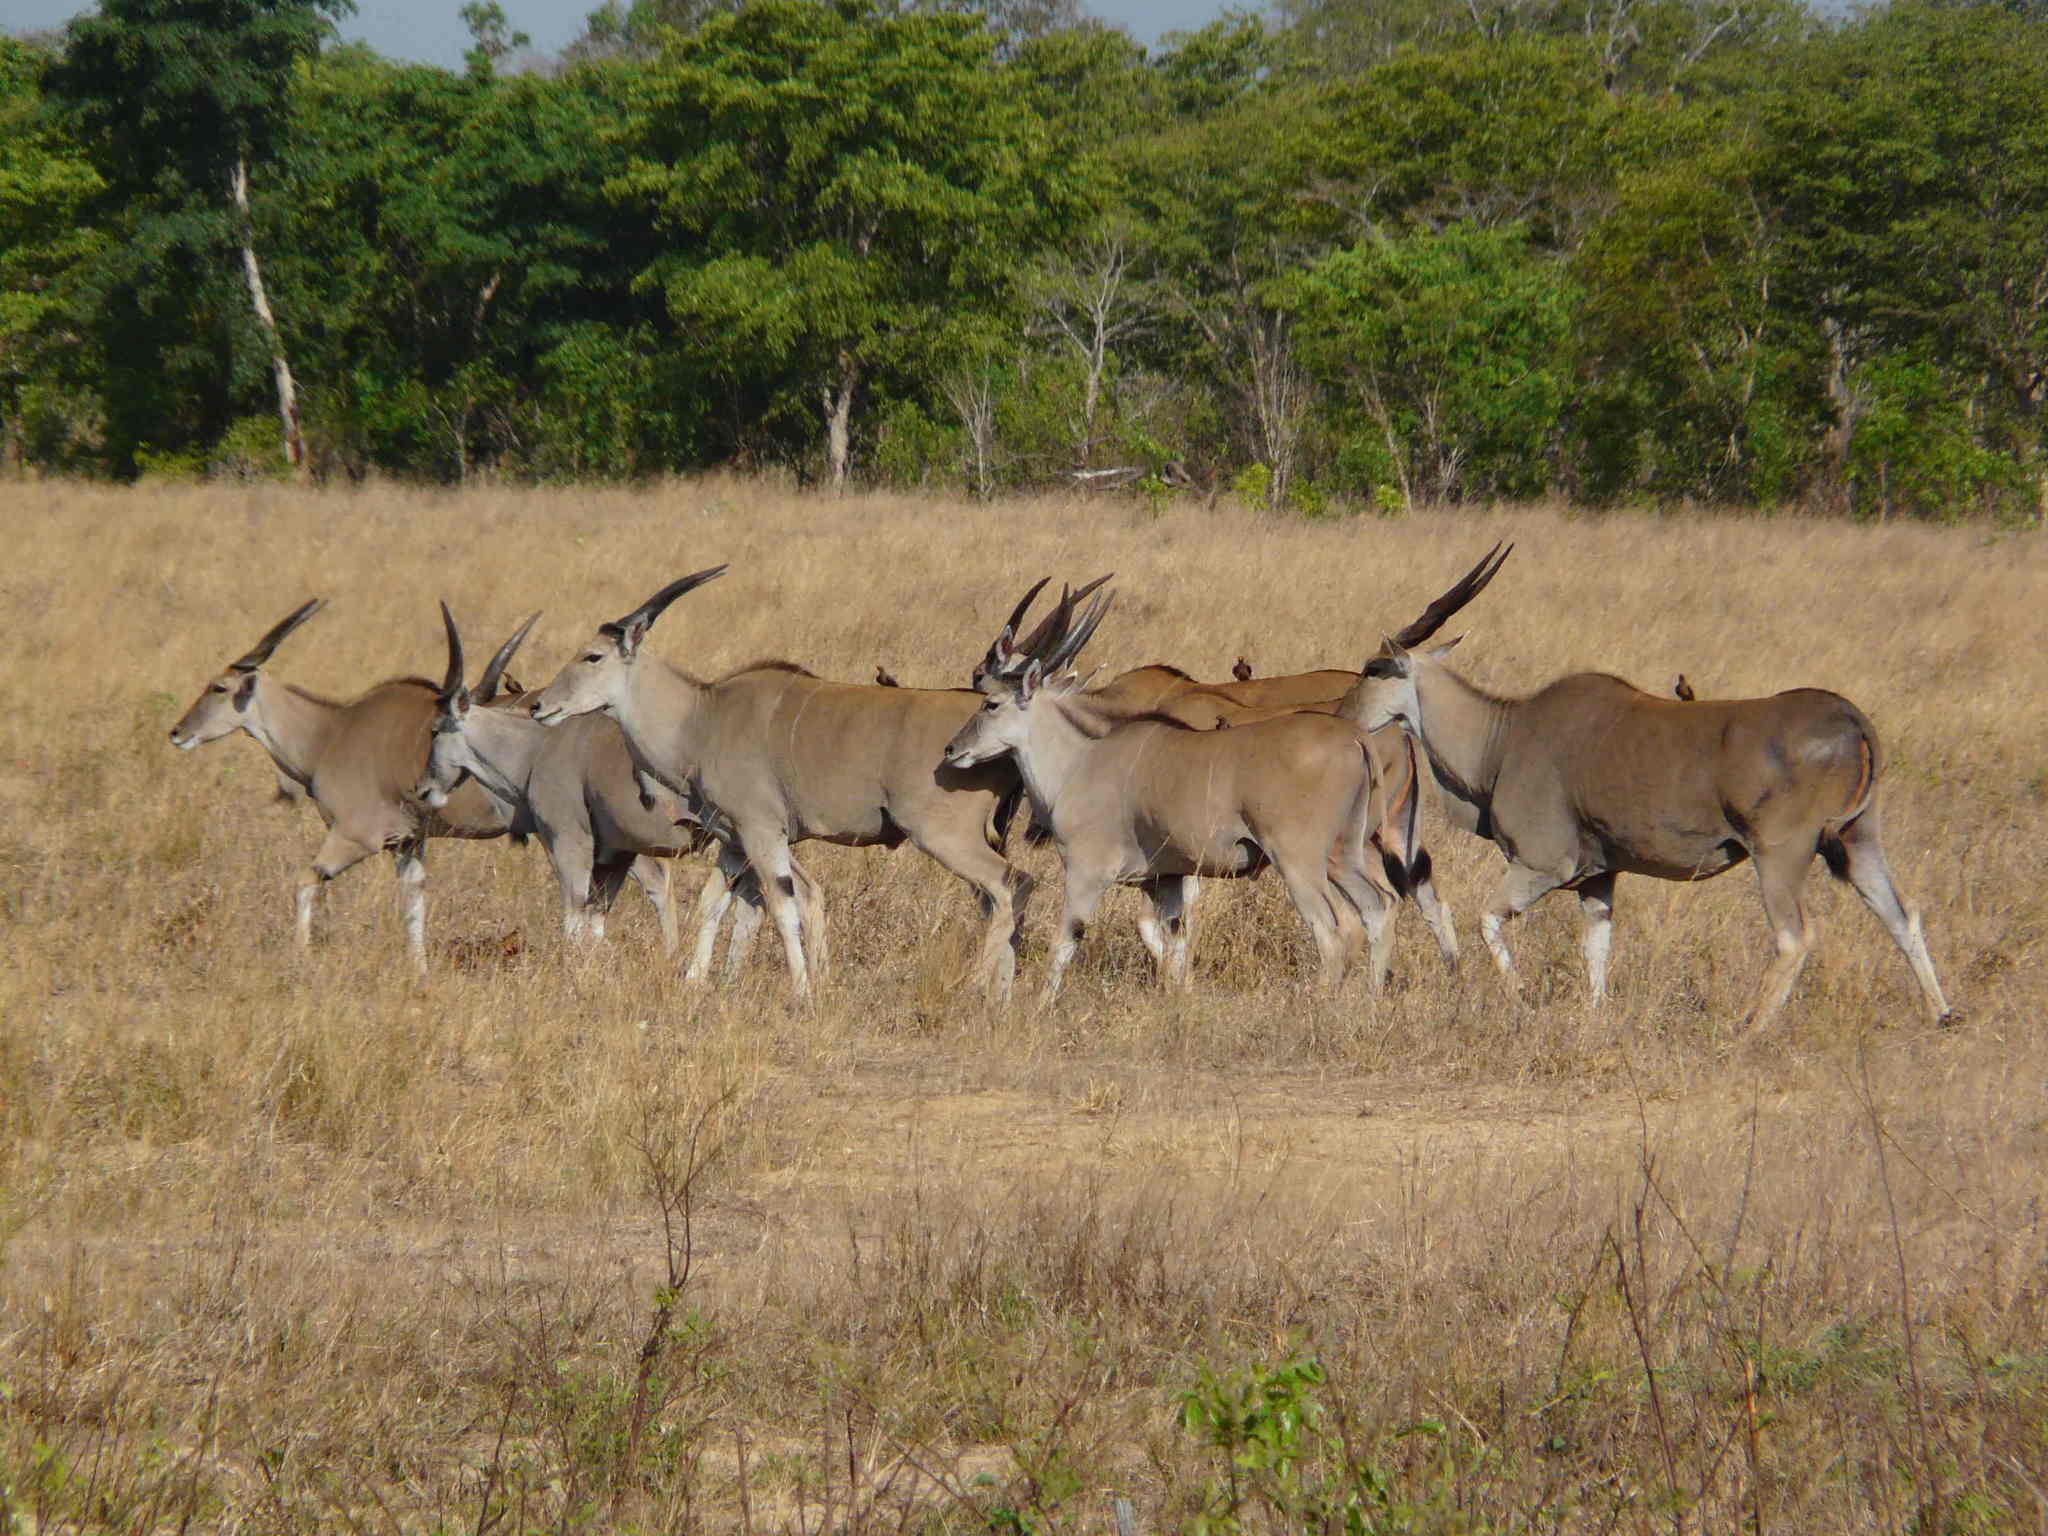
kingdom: Animalia
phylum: Chordata
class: Mammalia
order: Artiodactyla
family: Bovidae
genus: Taurotragus
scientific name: Taurotragus oryx
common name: Common eland
